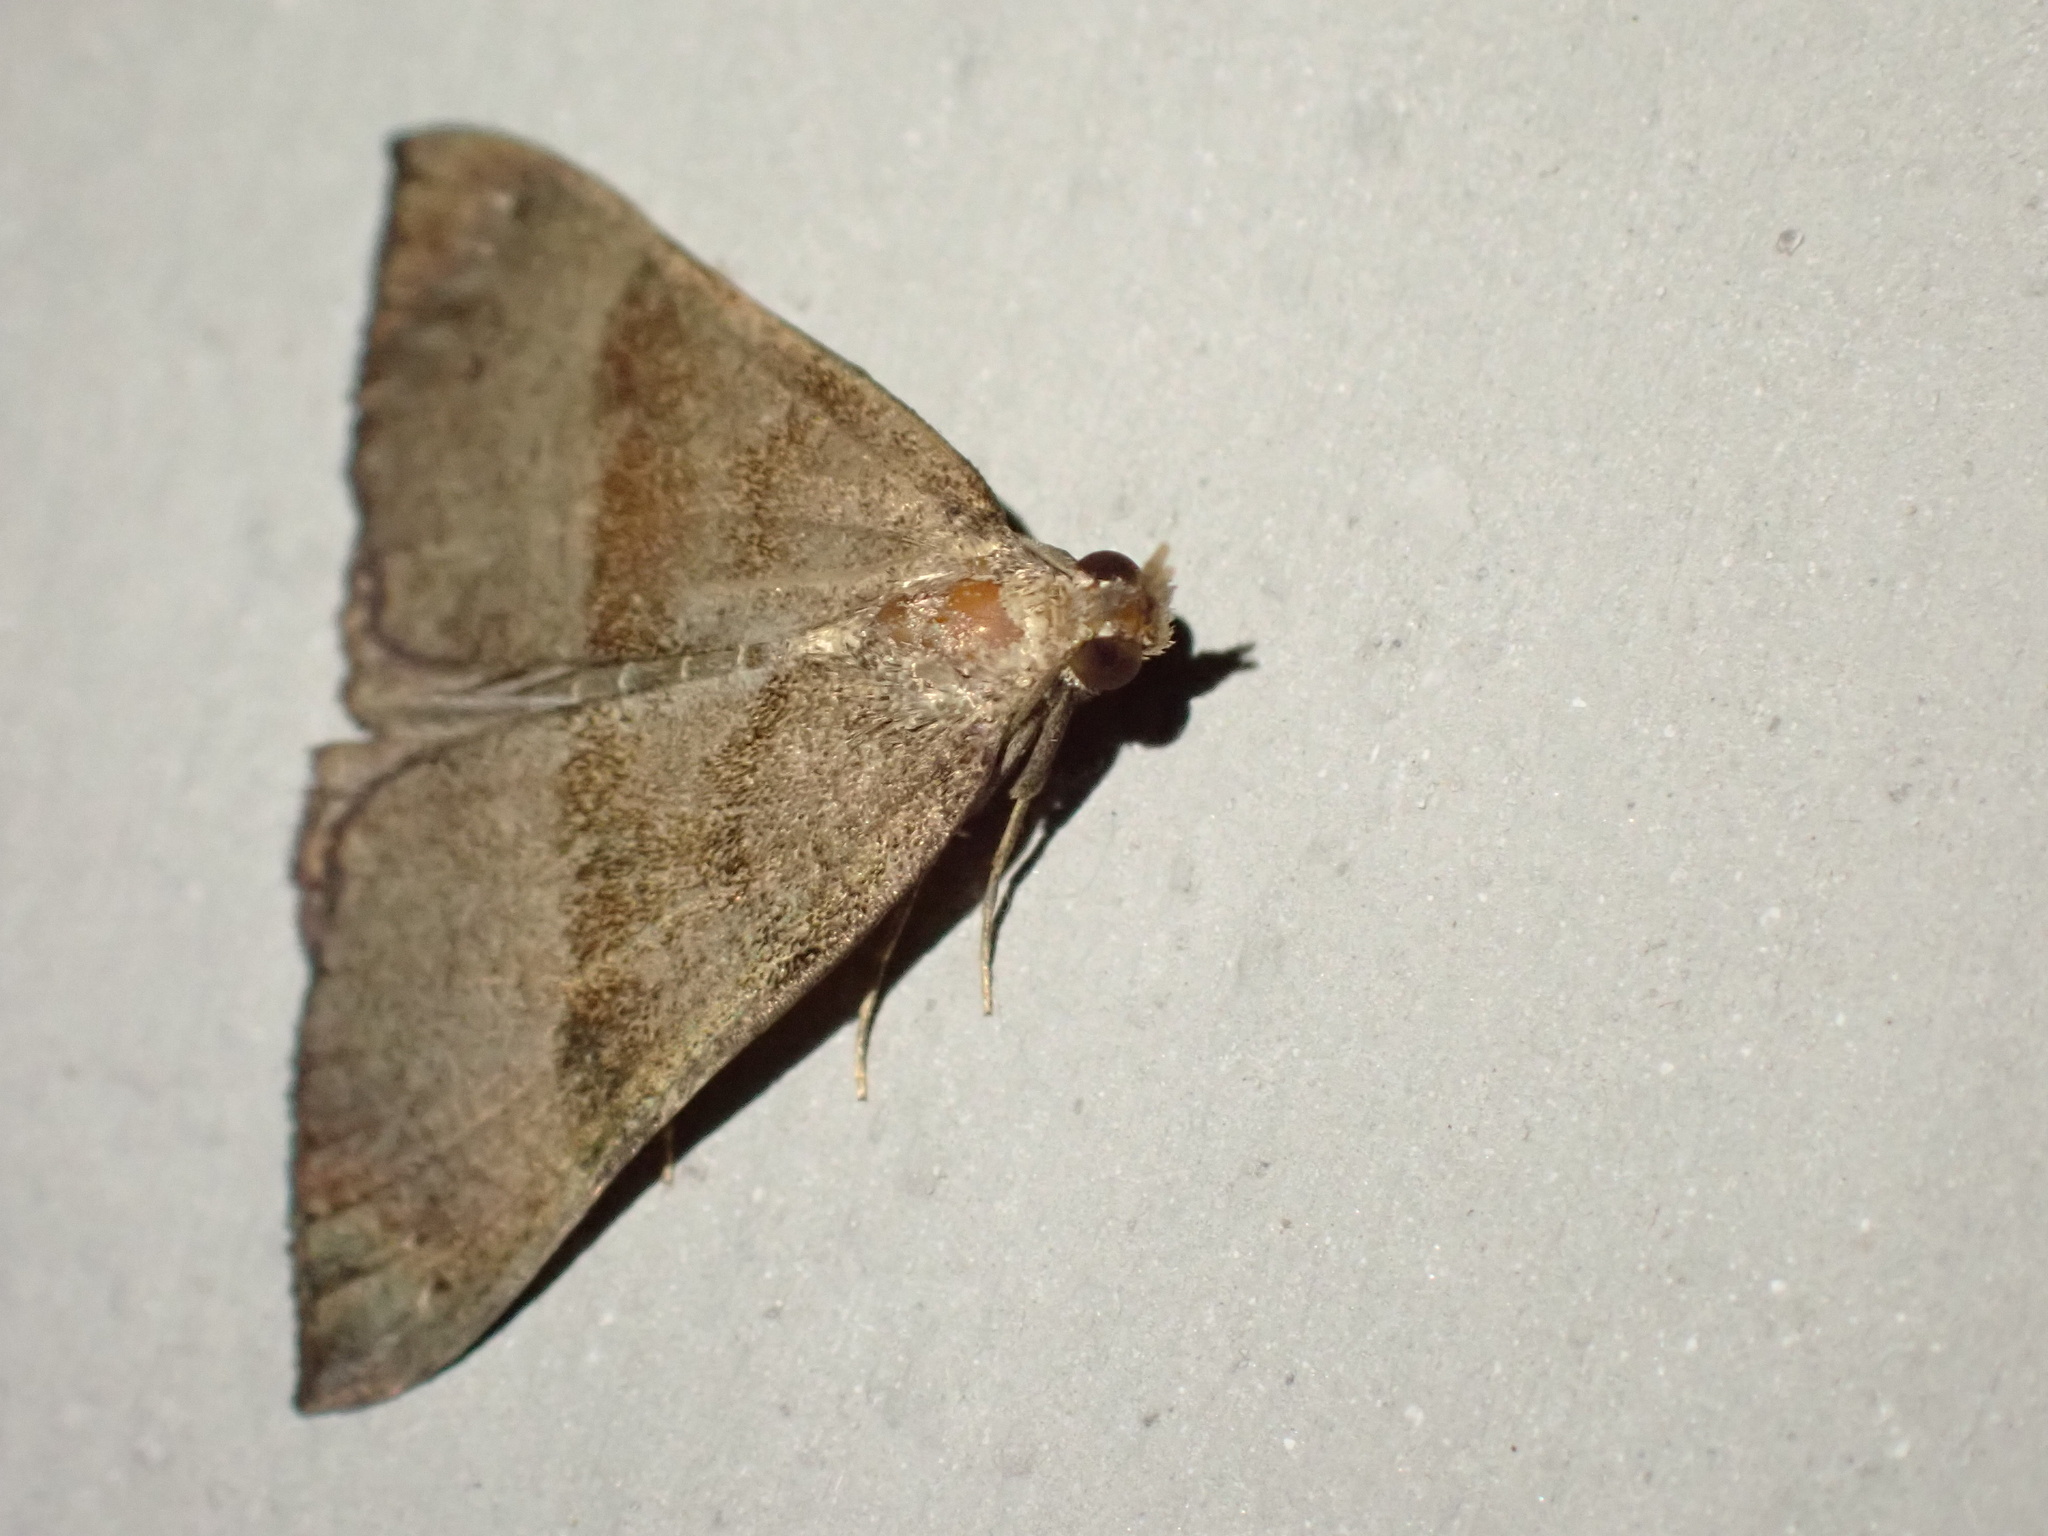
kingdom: Animalia
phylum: Arthropoda
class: Insecta
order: Lepidoptera
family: Erebidae
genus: Hypena
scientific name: Hypena proboscidalis
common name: Snout
